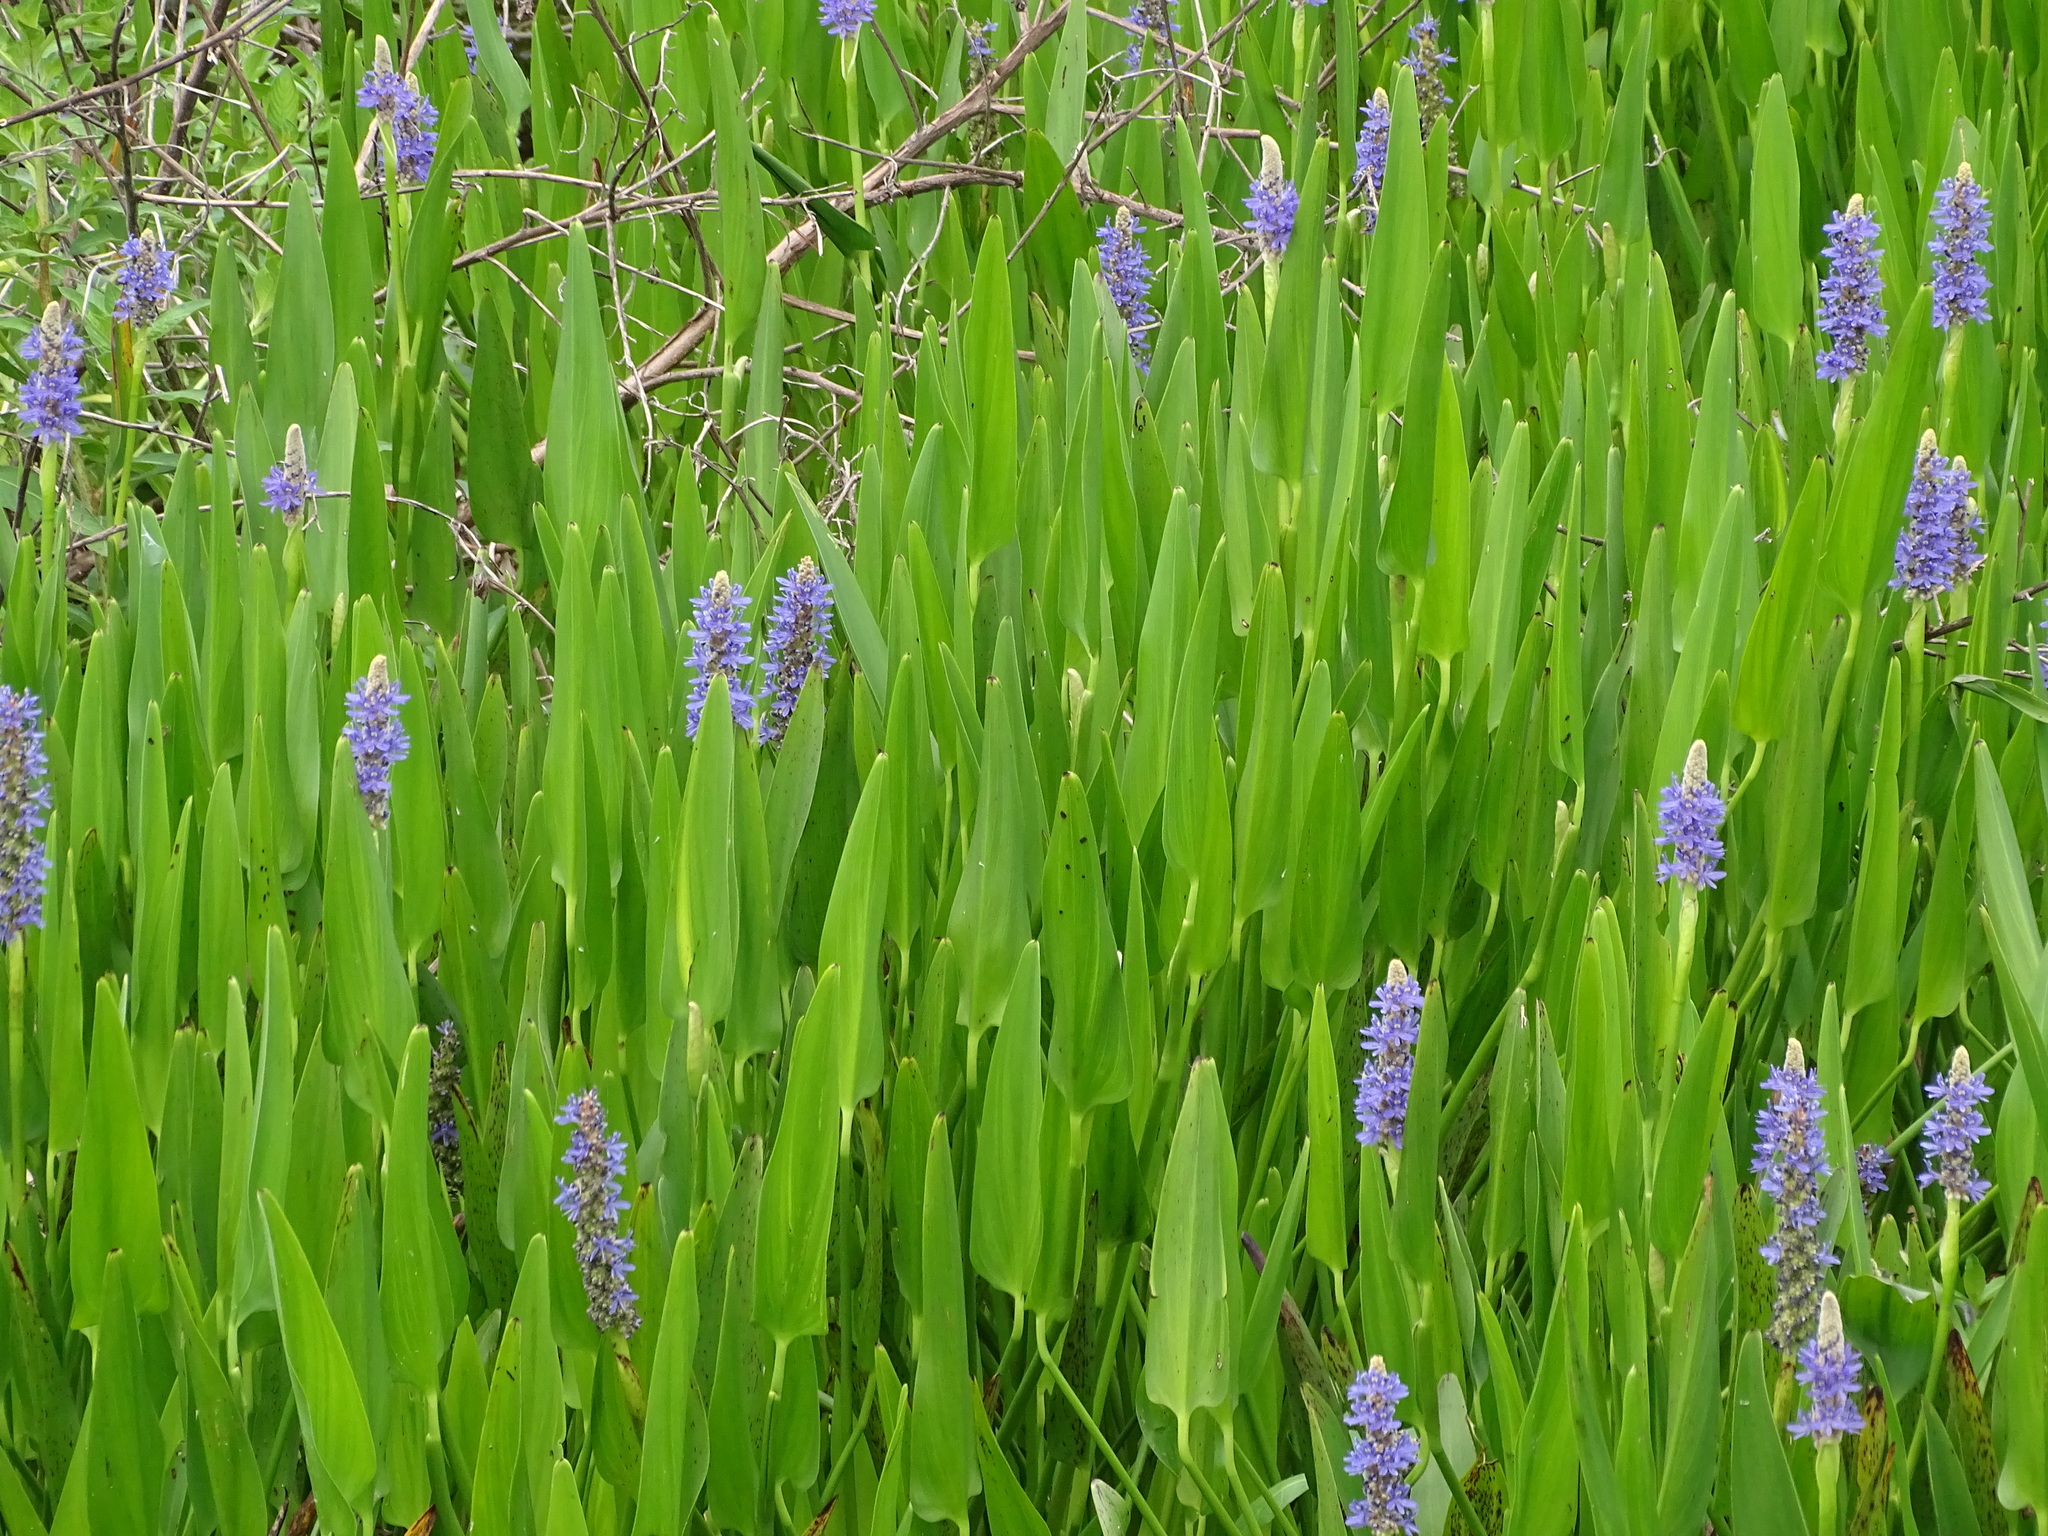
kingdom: Plantae
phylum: Tracheophyta
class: Liliopsida
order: Commelinales
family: Pontederiaceae
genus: Pontederia
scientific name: Pontederia cordata
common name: Pickerelweed
